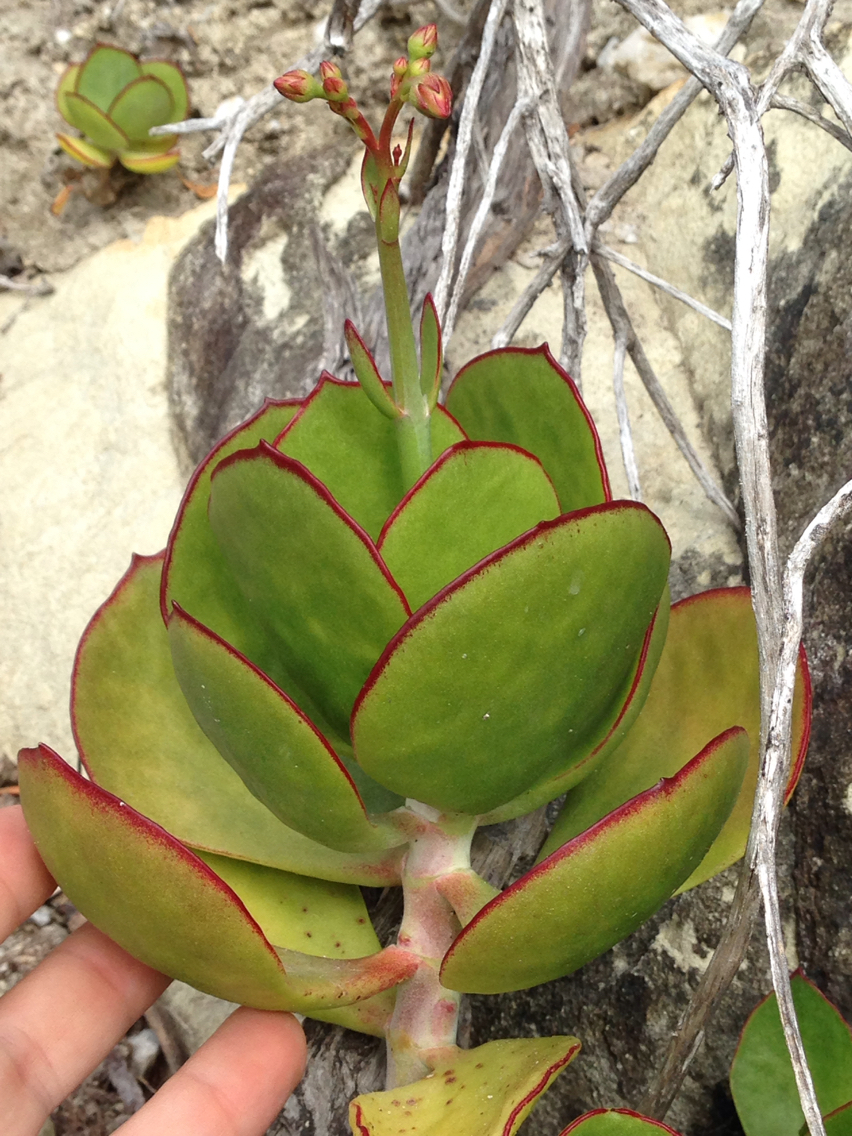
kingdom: Plantae
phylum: Tracheophyta
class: Magnoliopsida
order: Saxifragales
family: Crassulaceae
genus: Cotyledon
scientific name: Cotyledon orbiculata
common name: Pig's ear
